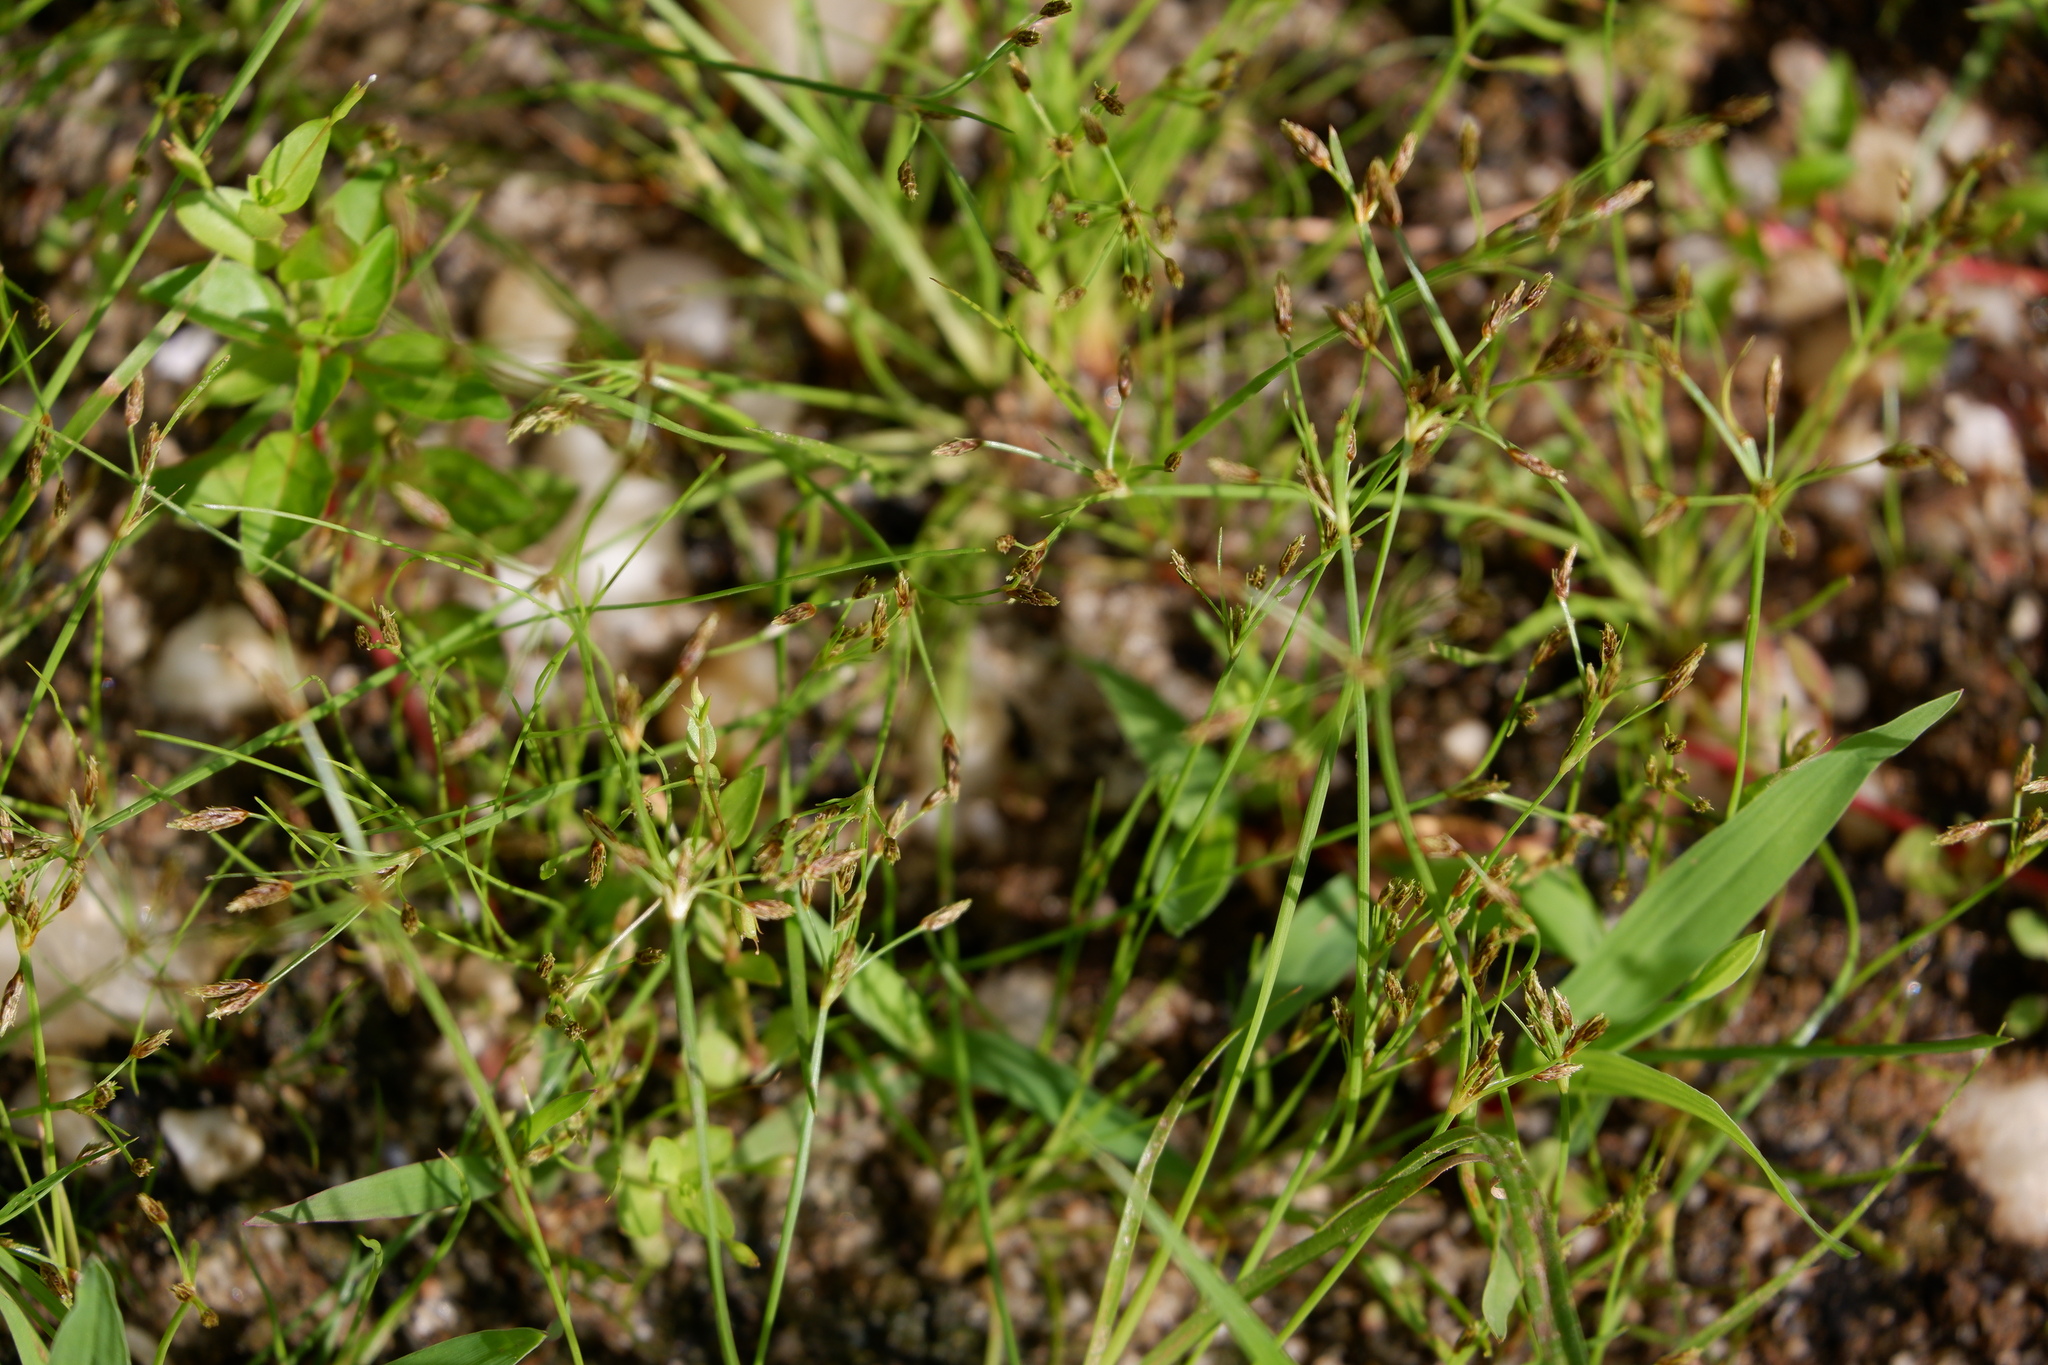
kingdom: Plantae
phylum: Tracheophyta
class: Liliopsida
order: Poales
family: Cyperaceae
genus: Fimbristylis
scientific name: Fimbristylis autumnalis
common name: Slender fimbristylis
